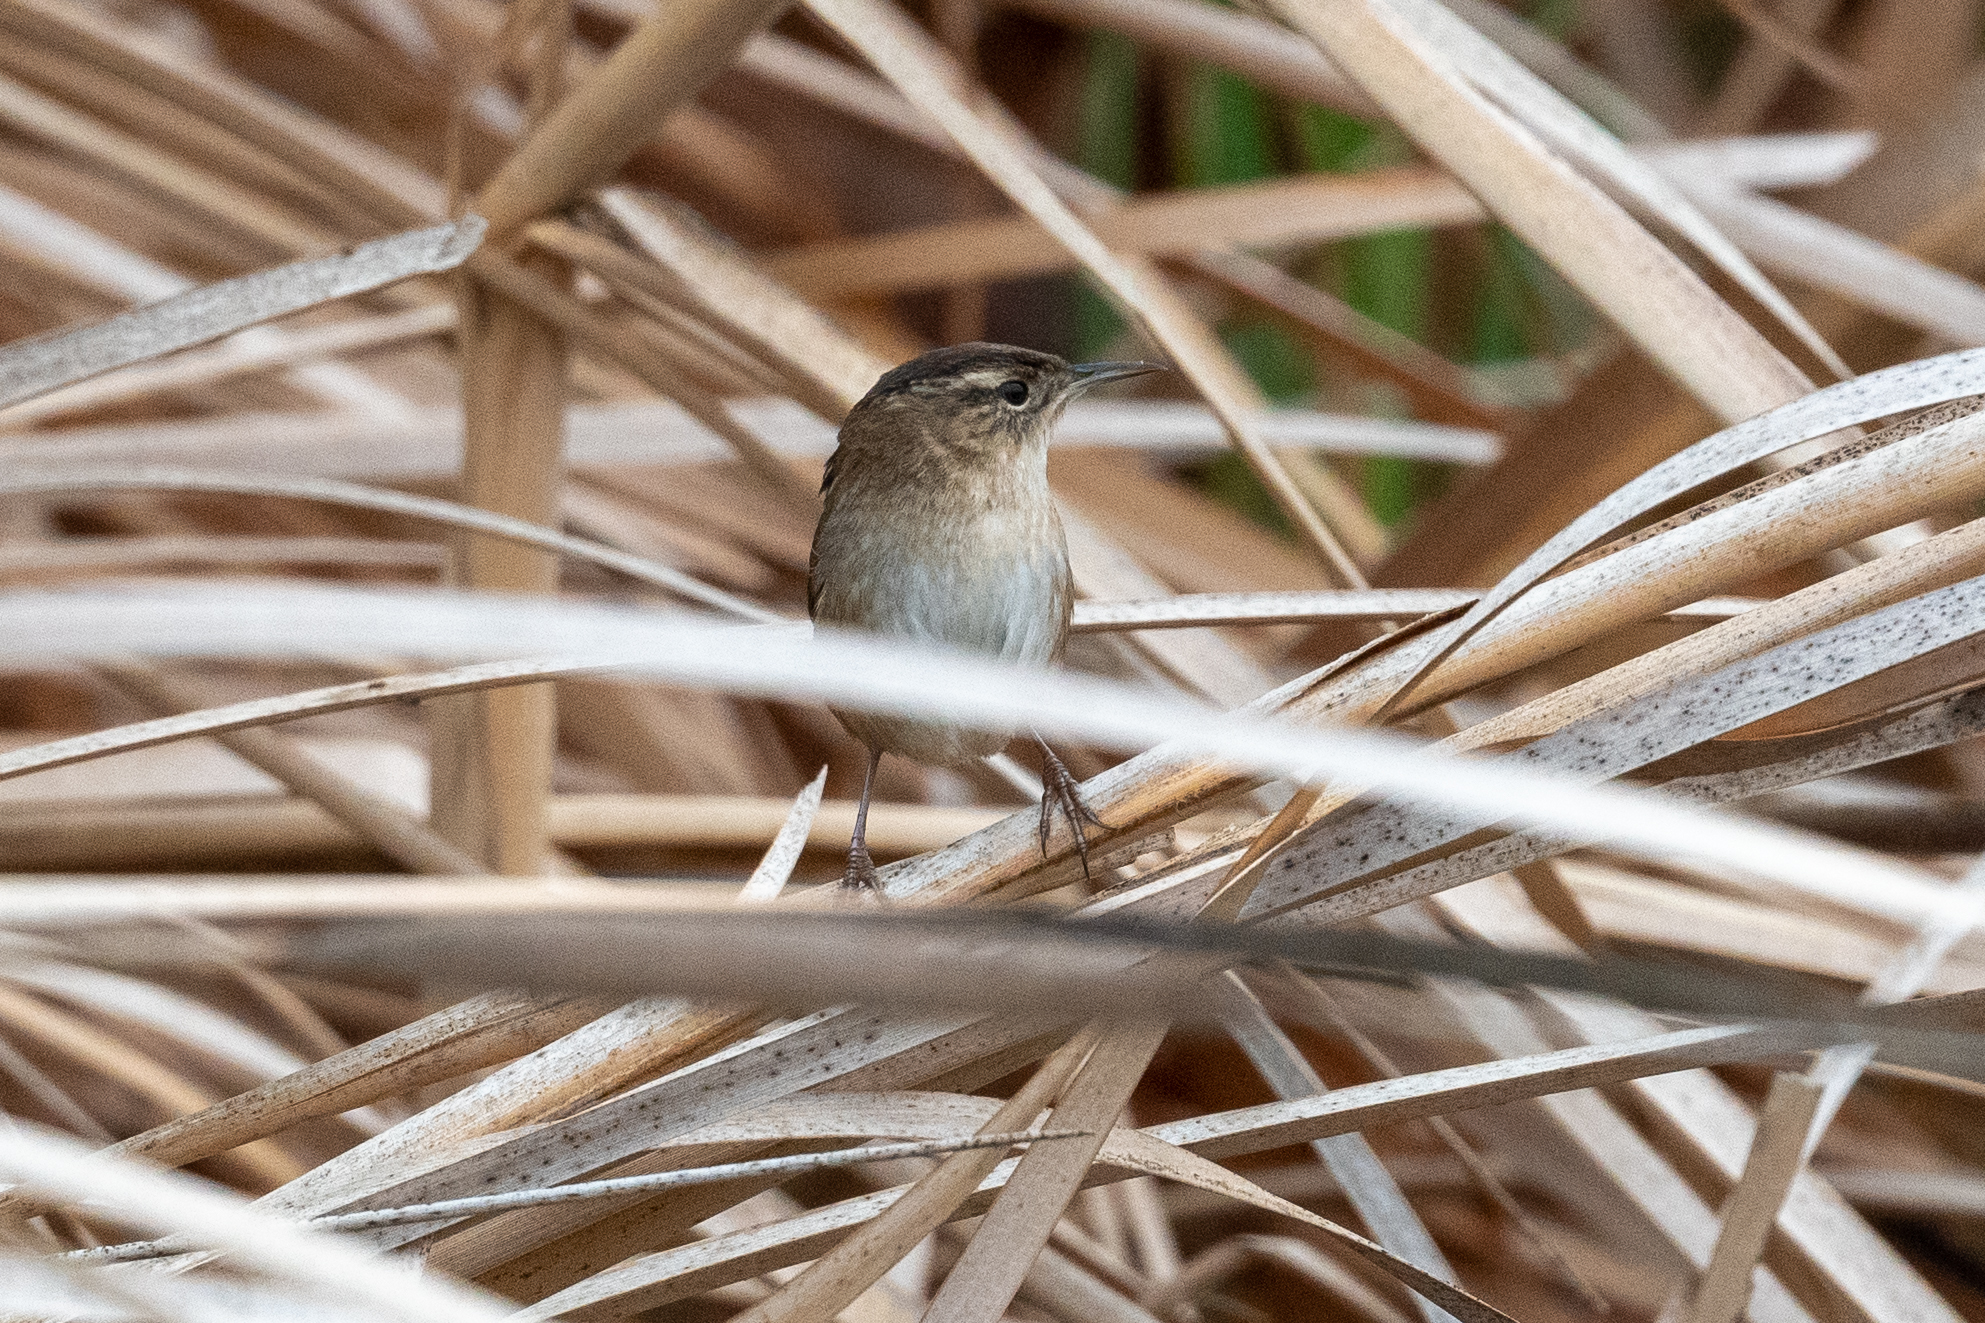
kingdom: Animalia
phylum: Chordata
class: Aves
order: Passeriformes
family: Troglodytidae
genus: Cistothorus
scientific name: Cistothorus palustris
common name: Marsh wren
